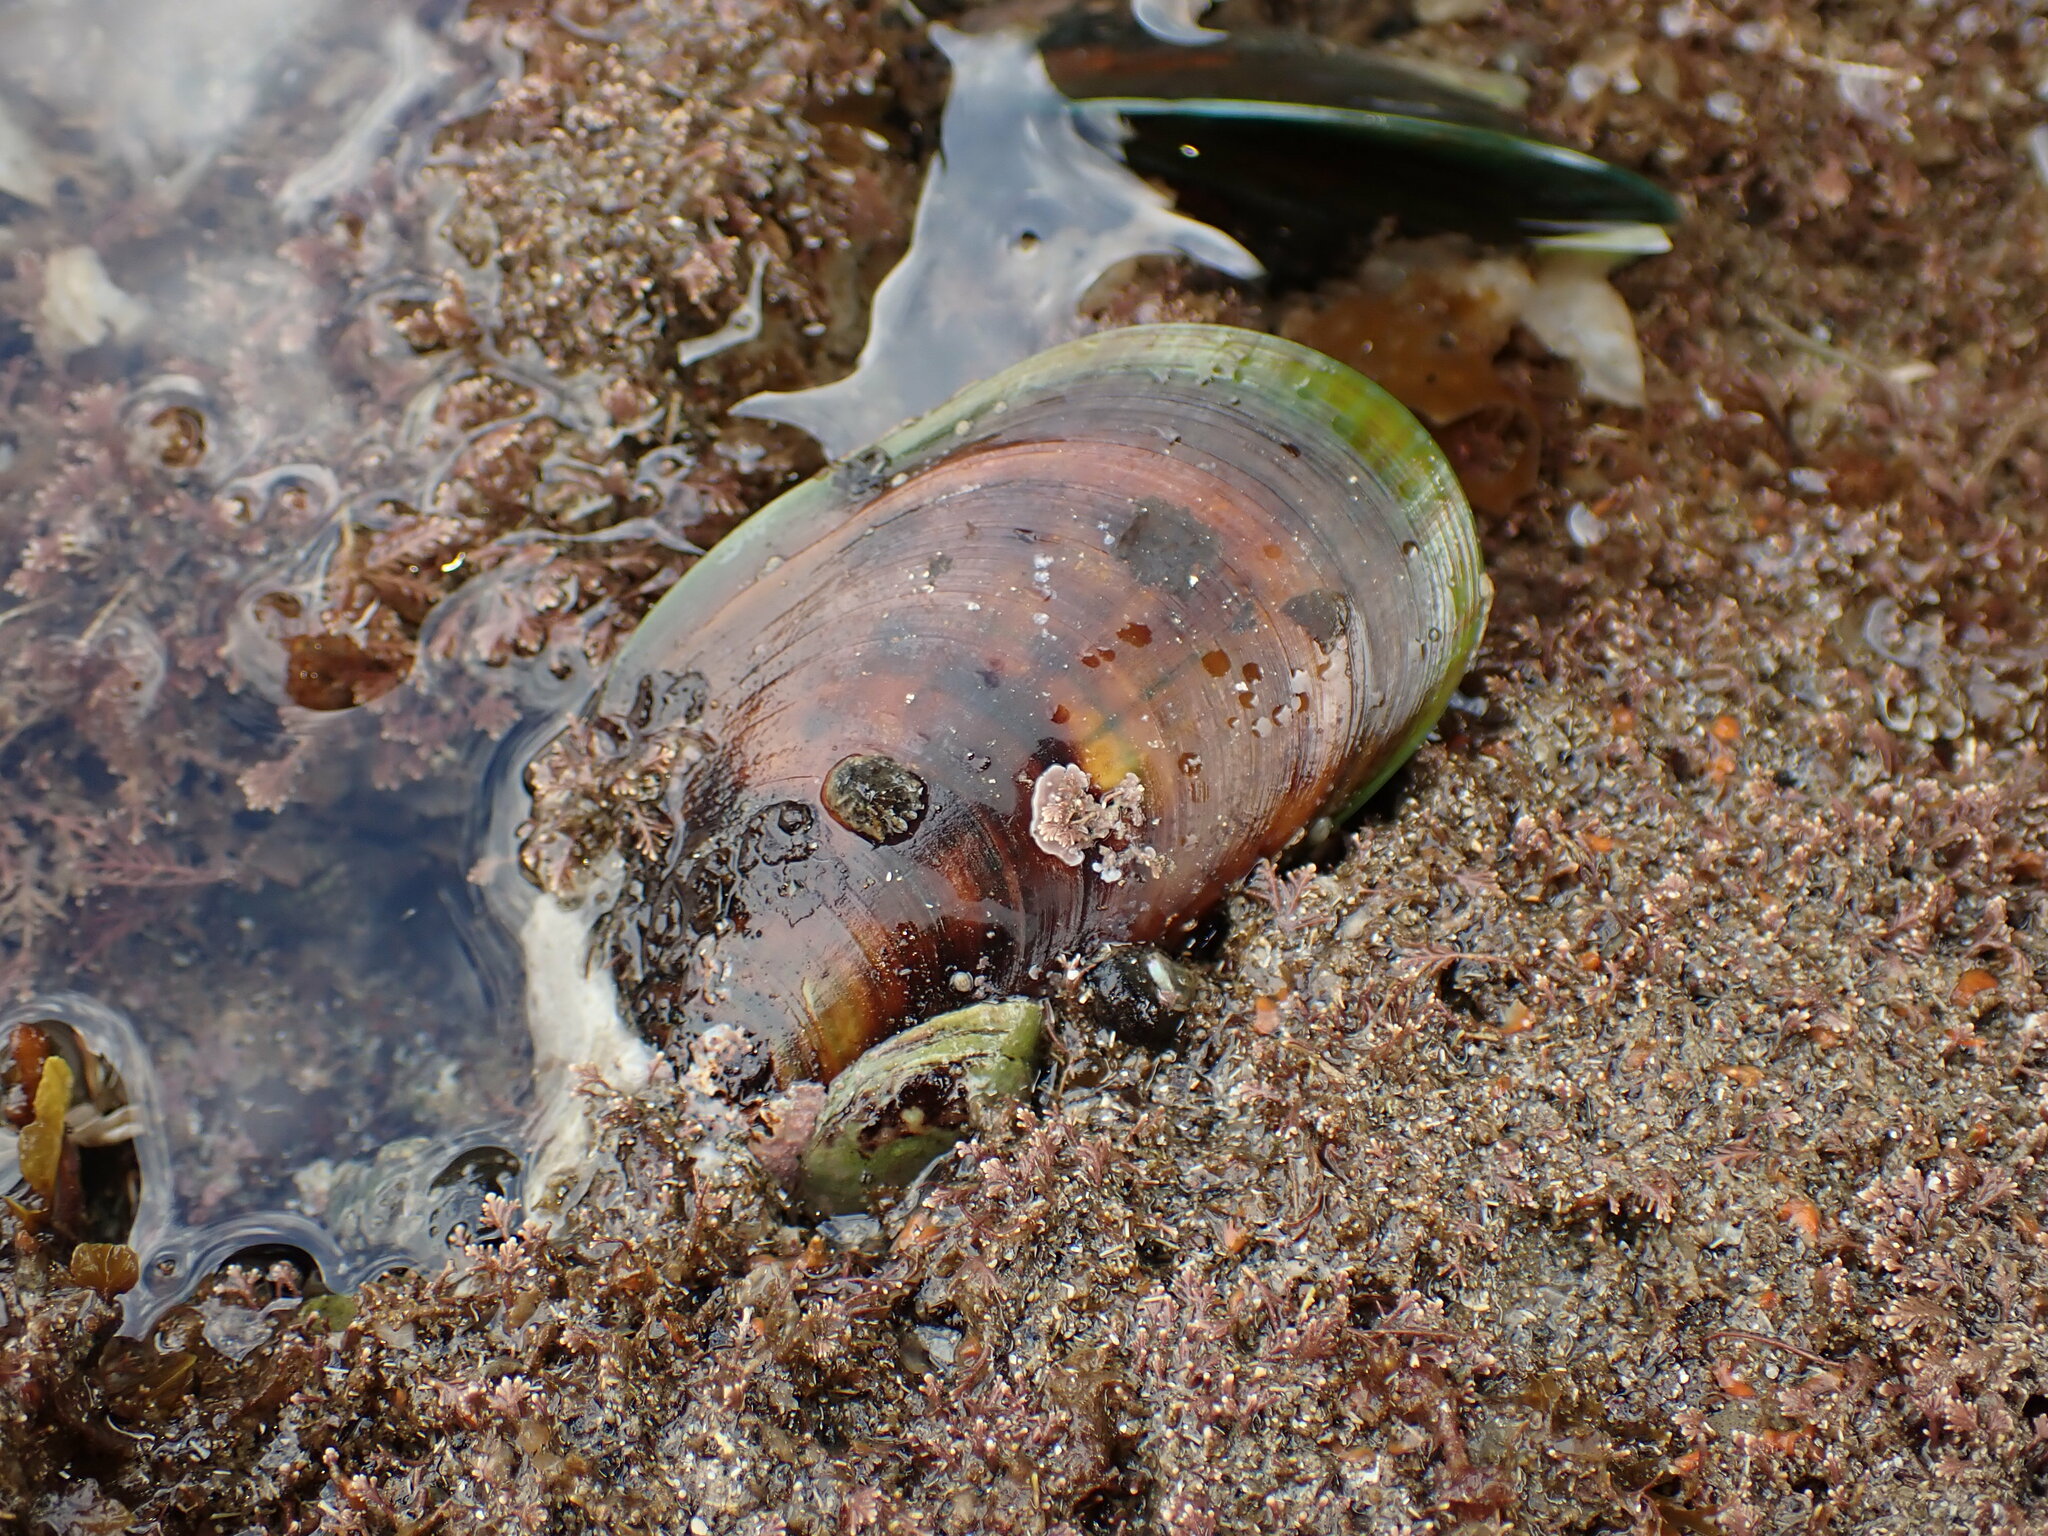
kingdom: Animalia
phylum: Mollusca
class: Bivalvia
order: Mytilida
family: Mytilidae
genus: Perna
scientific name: Perna canaliculus
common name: New zealand greenshelltm
